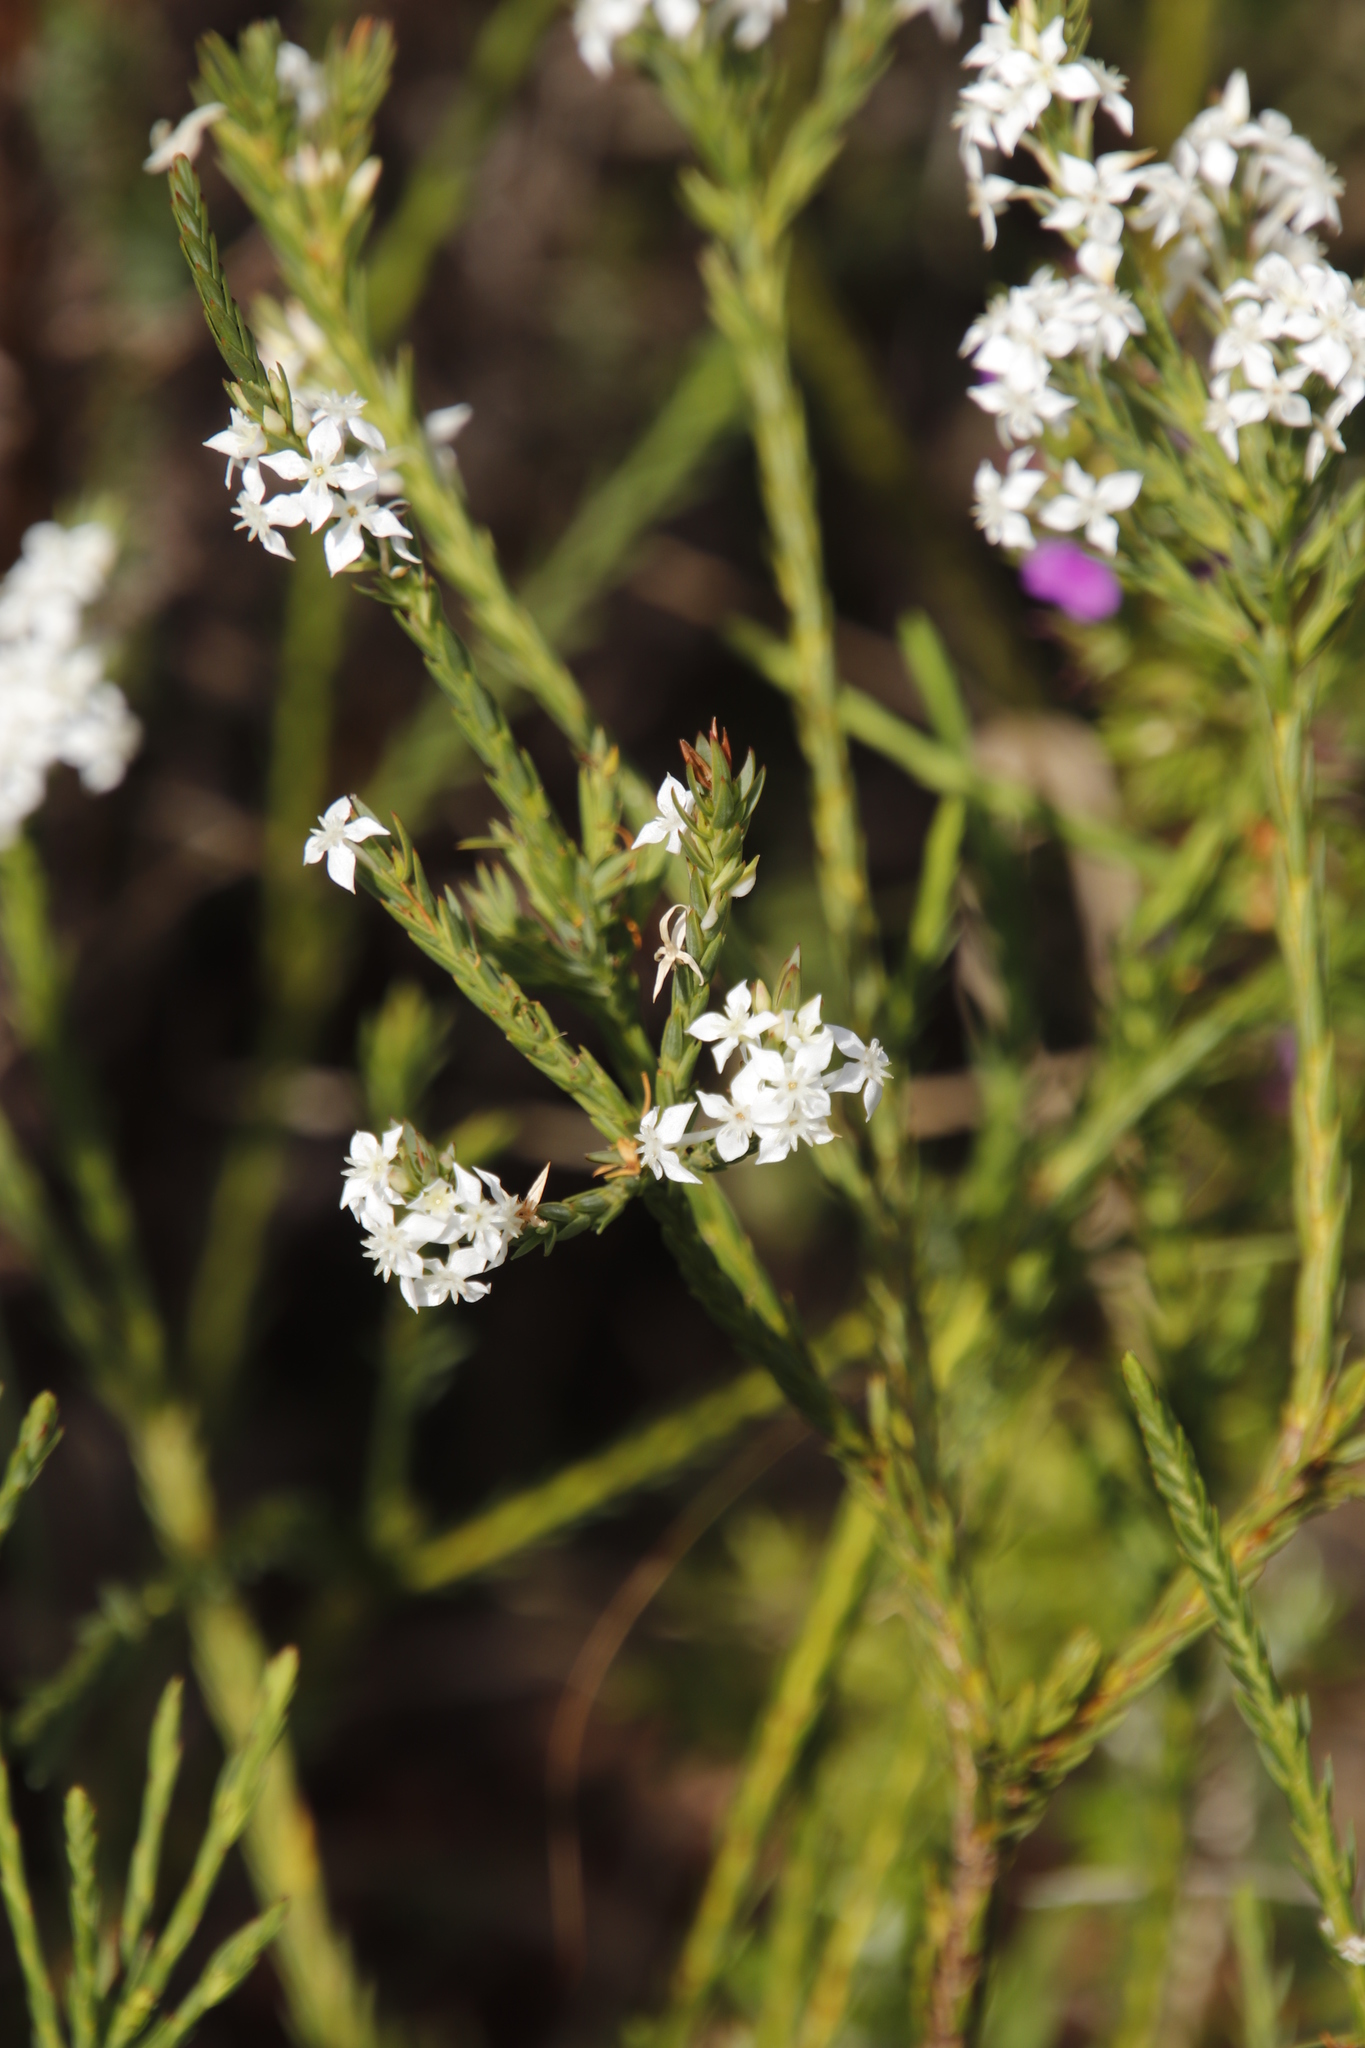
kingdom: Plantae
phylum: Tracheophyta
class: Magnoliopsida
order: Malvales
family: Thymelaeaceae
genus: Struthiola
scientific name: Struthiola ciliata
